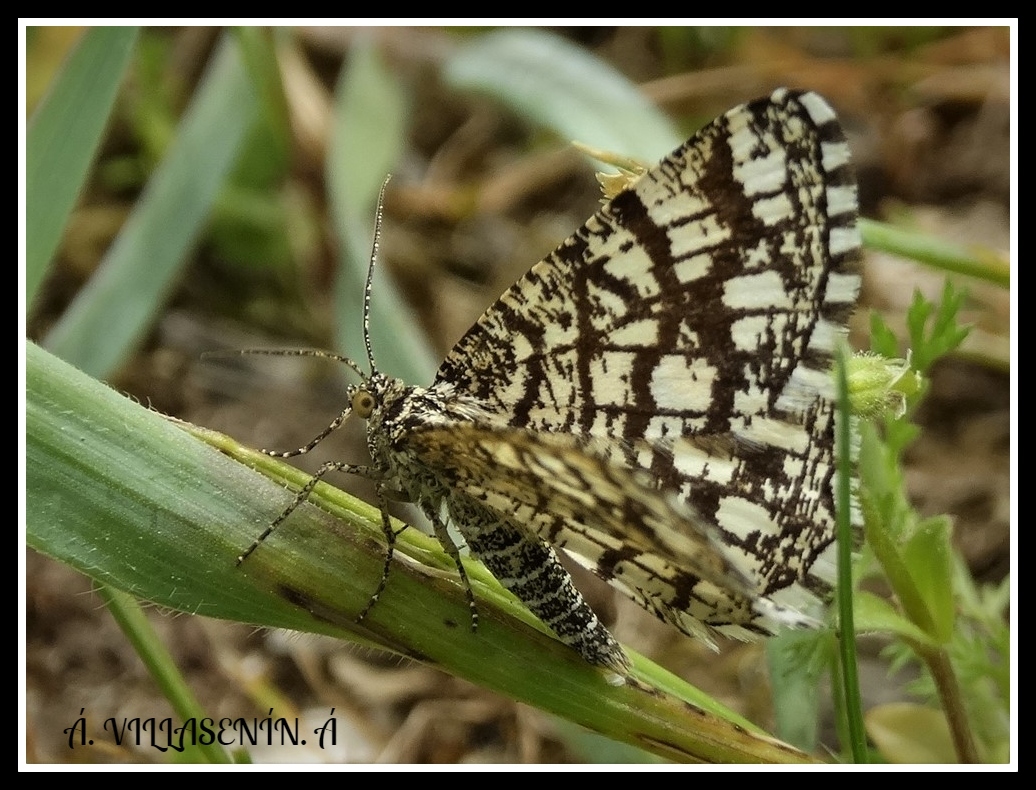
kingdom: Animalia
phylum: Arthropoda
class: Insecta
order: Lepidoptera
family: Geometridae
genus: Chiasmia
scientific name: Chiasmia clathrata
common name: Latticed heath
